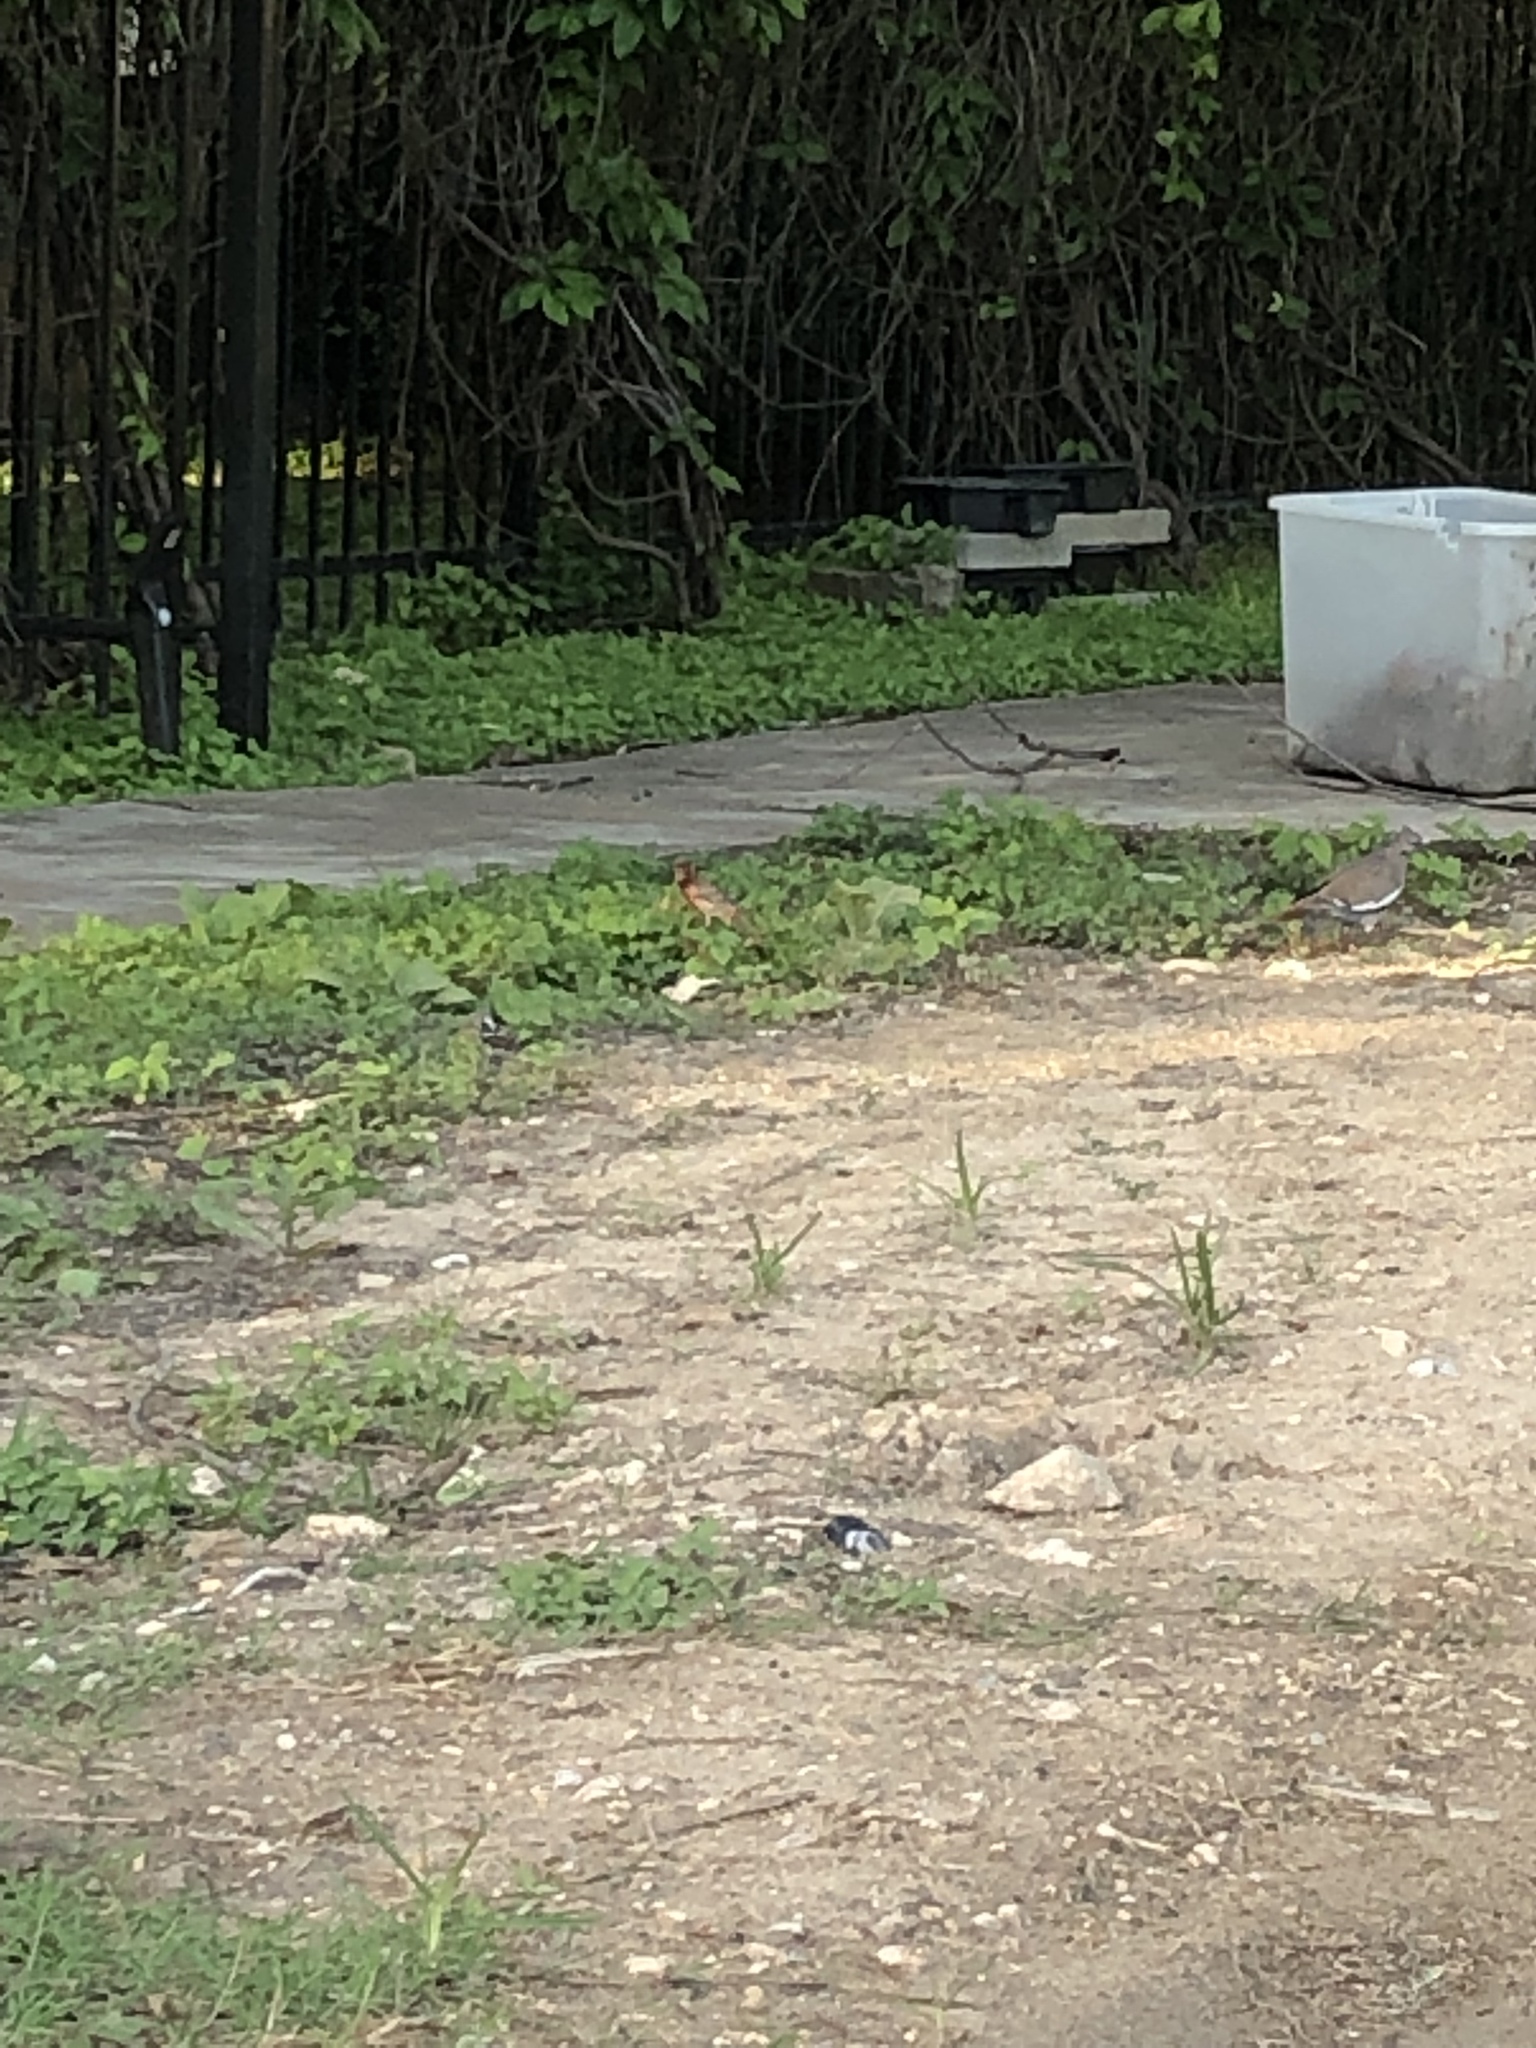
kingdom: Animalia
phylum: Chordata
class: Aves
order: Passeriformes
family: Fringillidae
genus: Haemorhous
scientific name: Haemorhous mexicanus
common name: House finch
